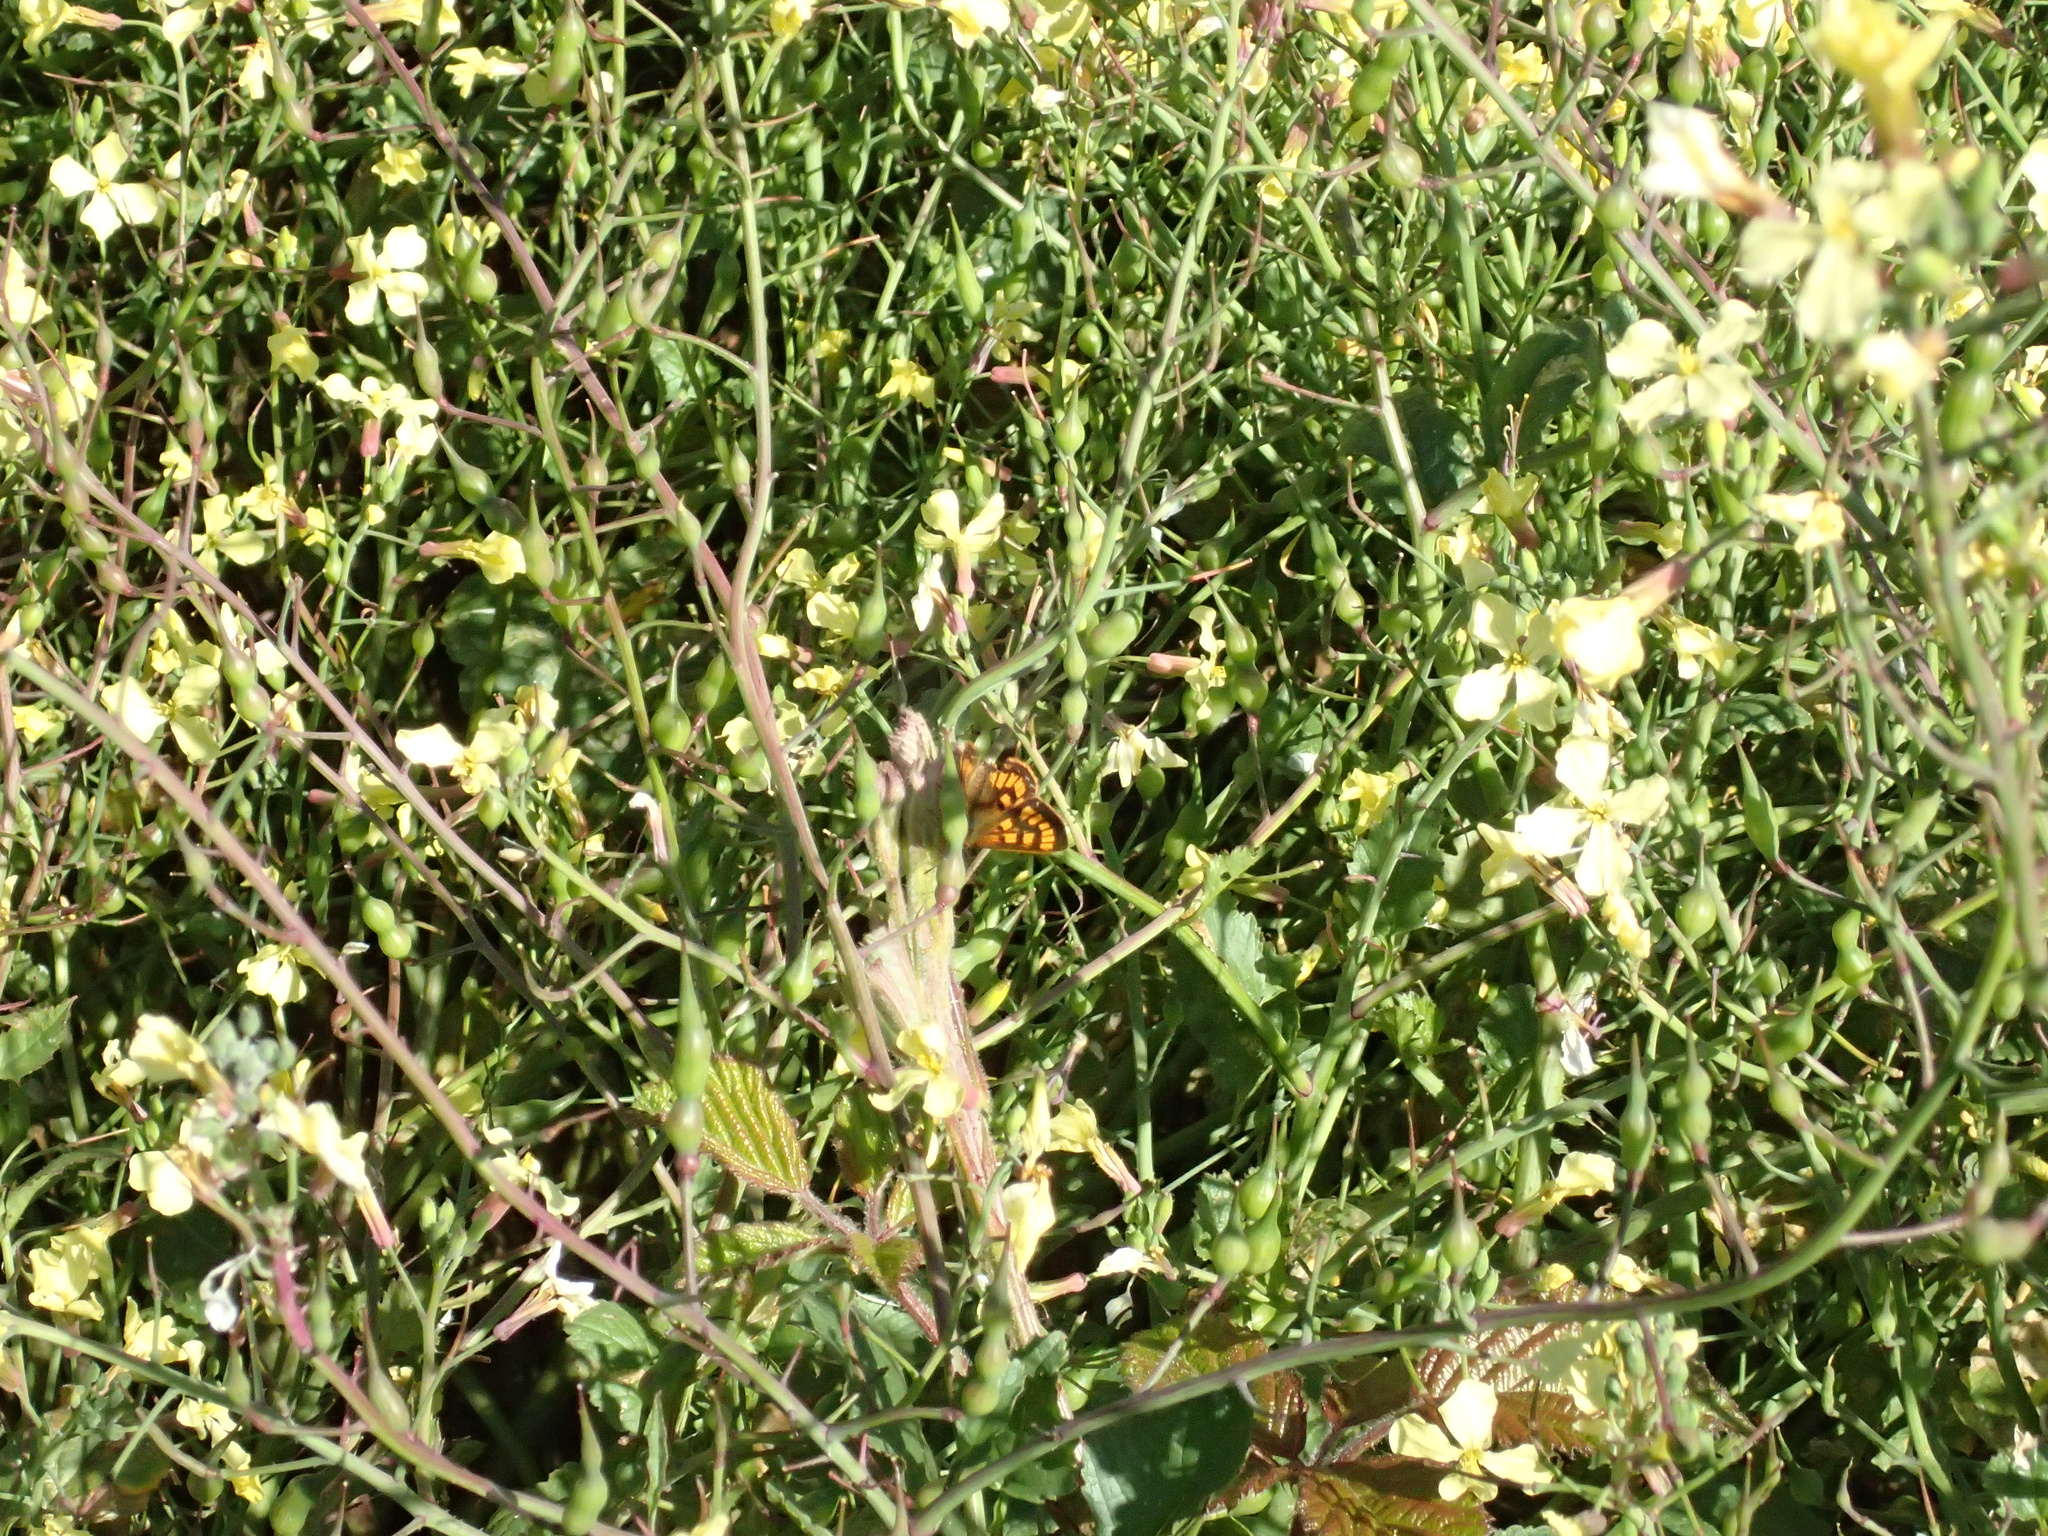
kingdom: Animalia
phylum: Arthropoda
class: Insecta
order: Lepidoptera
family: Lycaenidae
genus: Lycaena
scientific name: Lycaena
